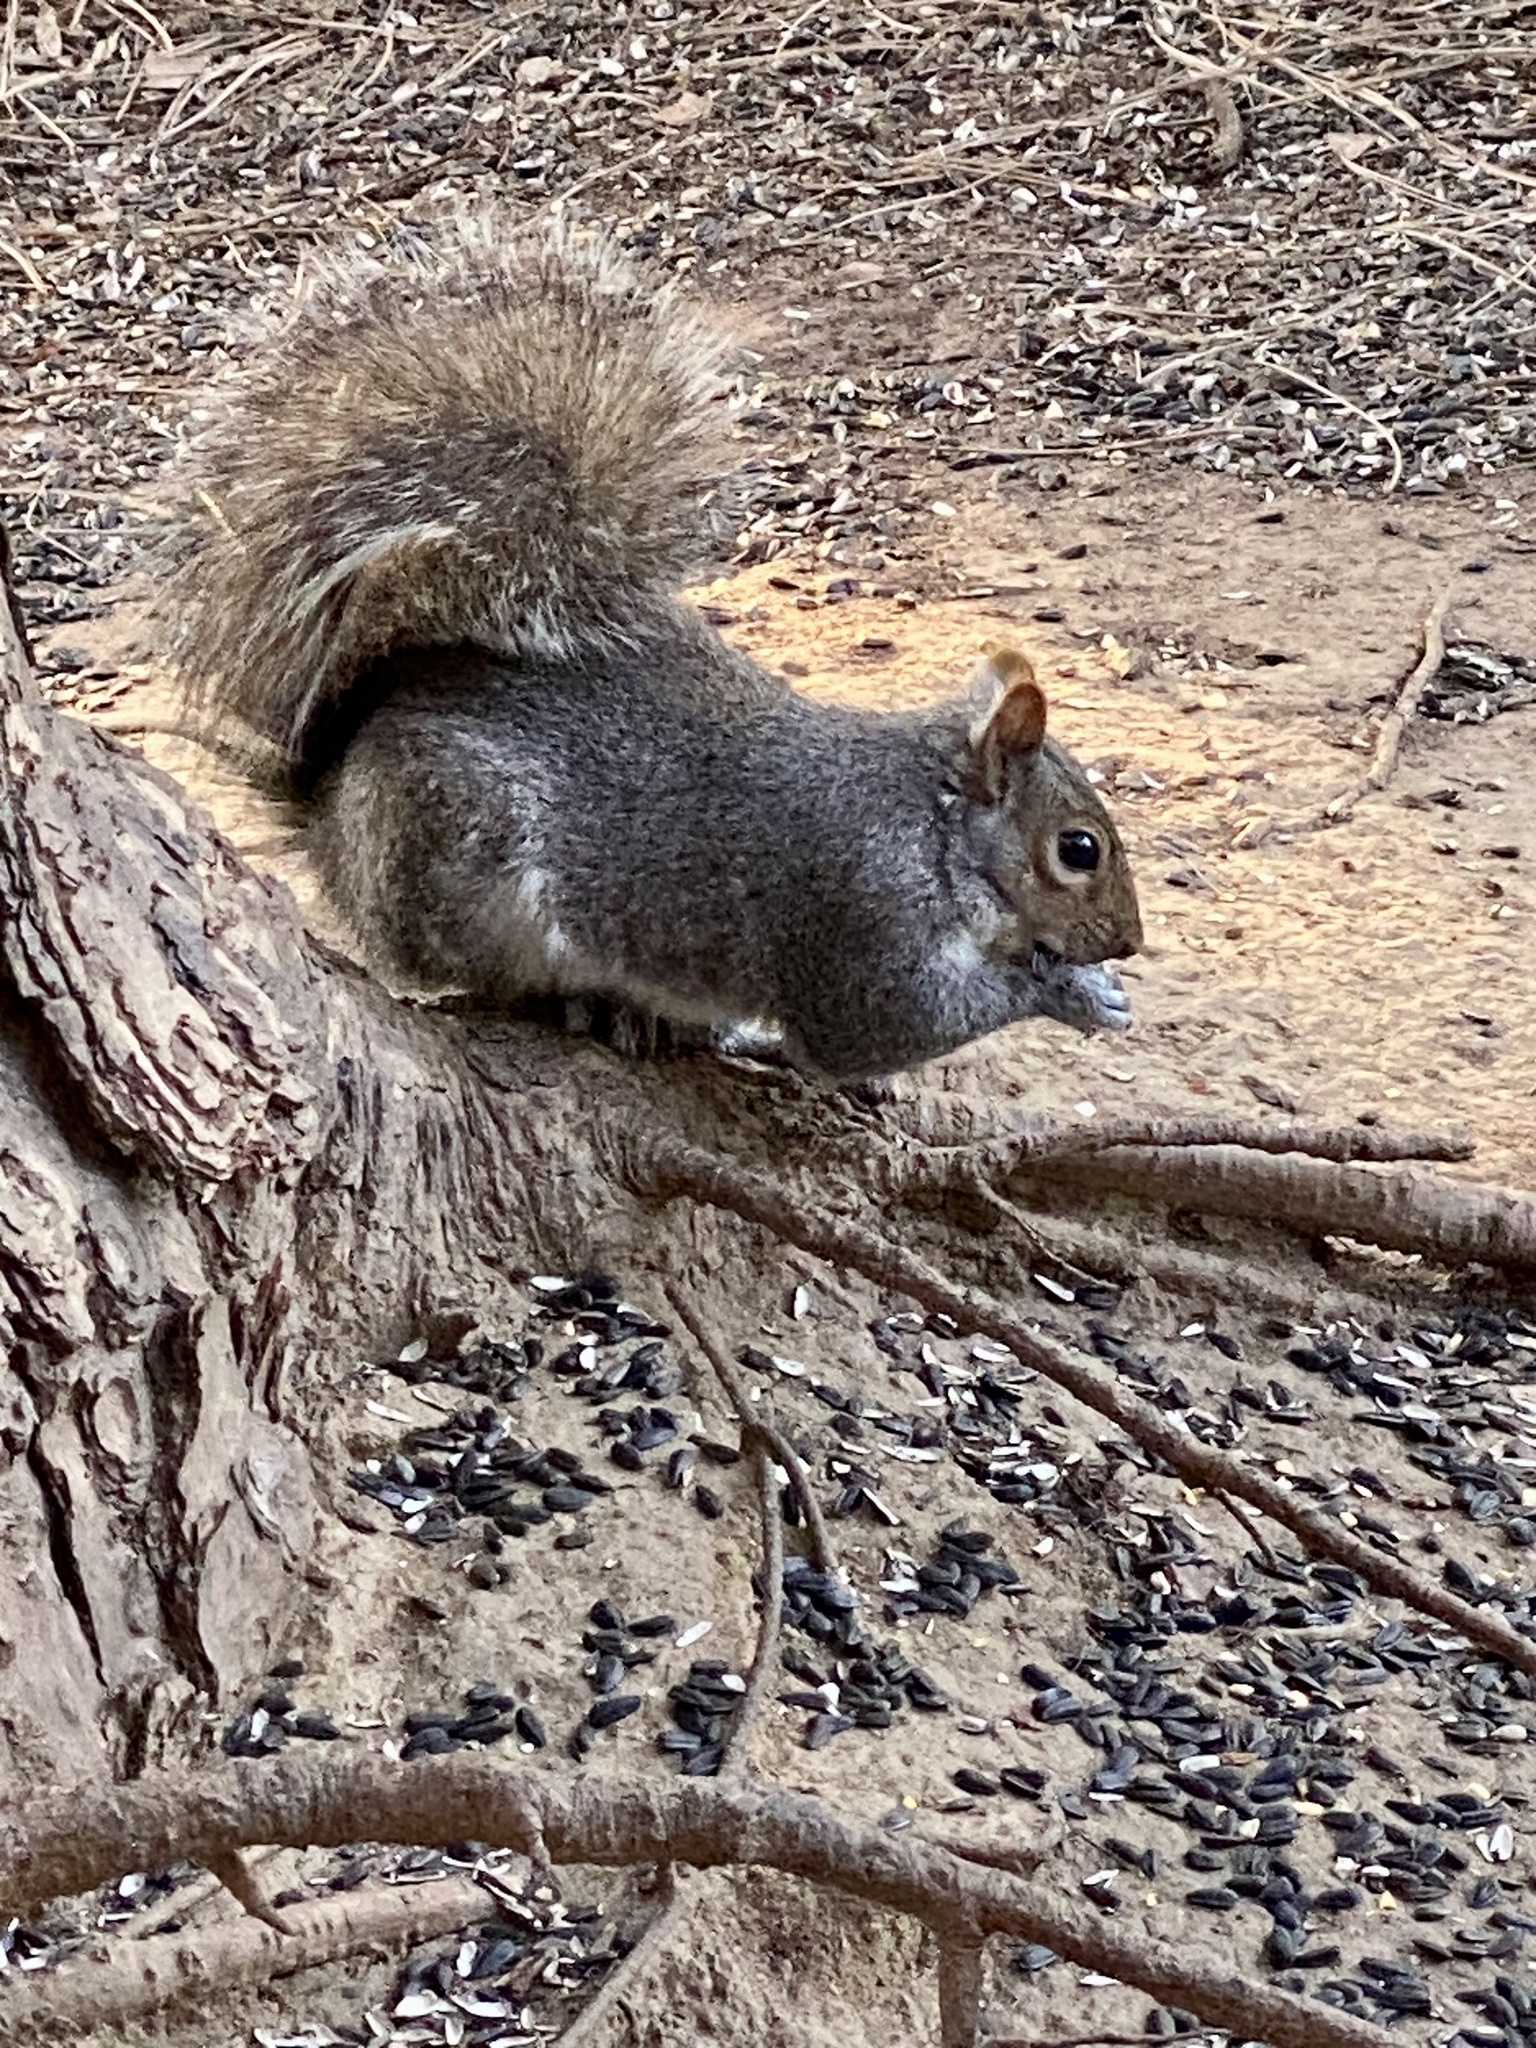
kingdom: Animalia
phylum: Chordata
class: Mammalia
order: Rodentia
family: Sciuridae
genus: Sciurus
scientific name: Sciurus carolinensis
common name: Eastern gray squirrel
